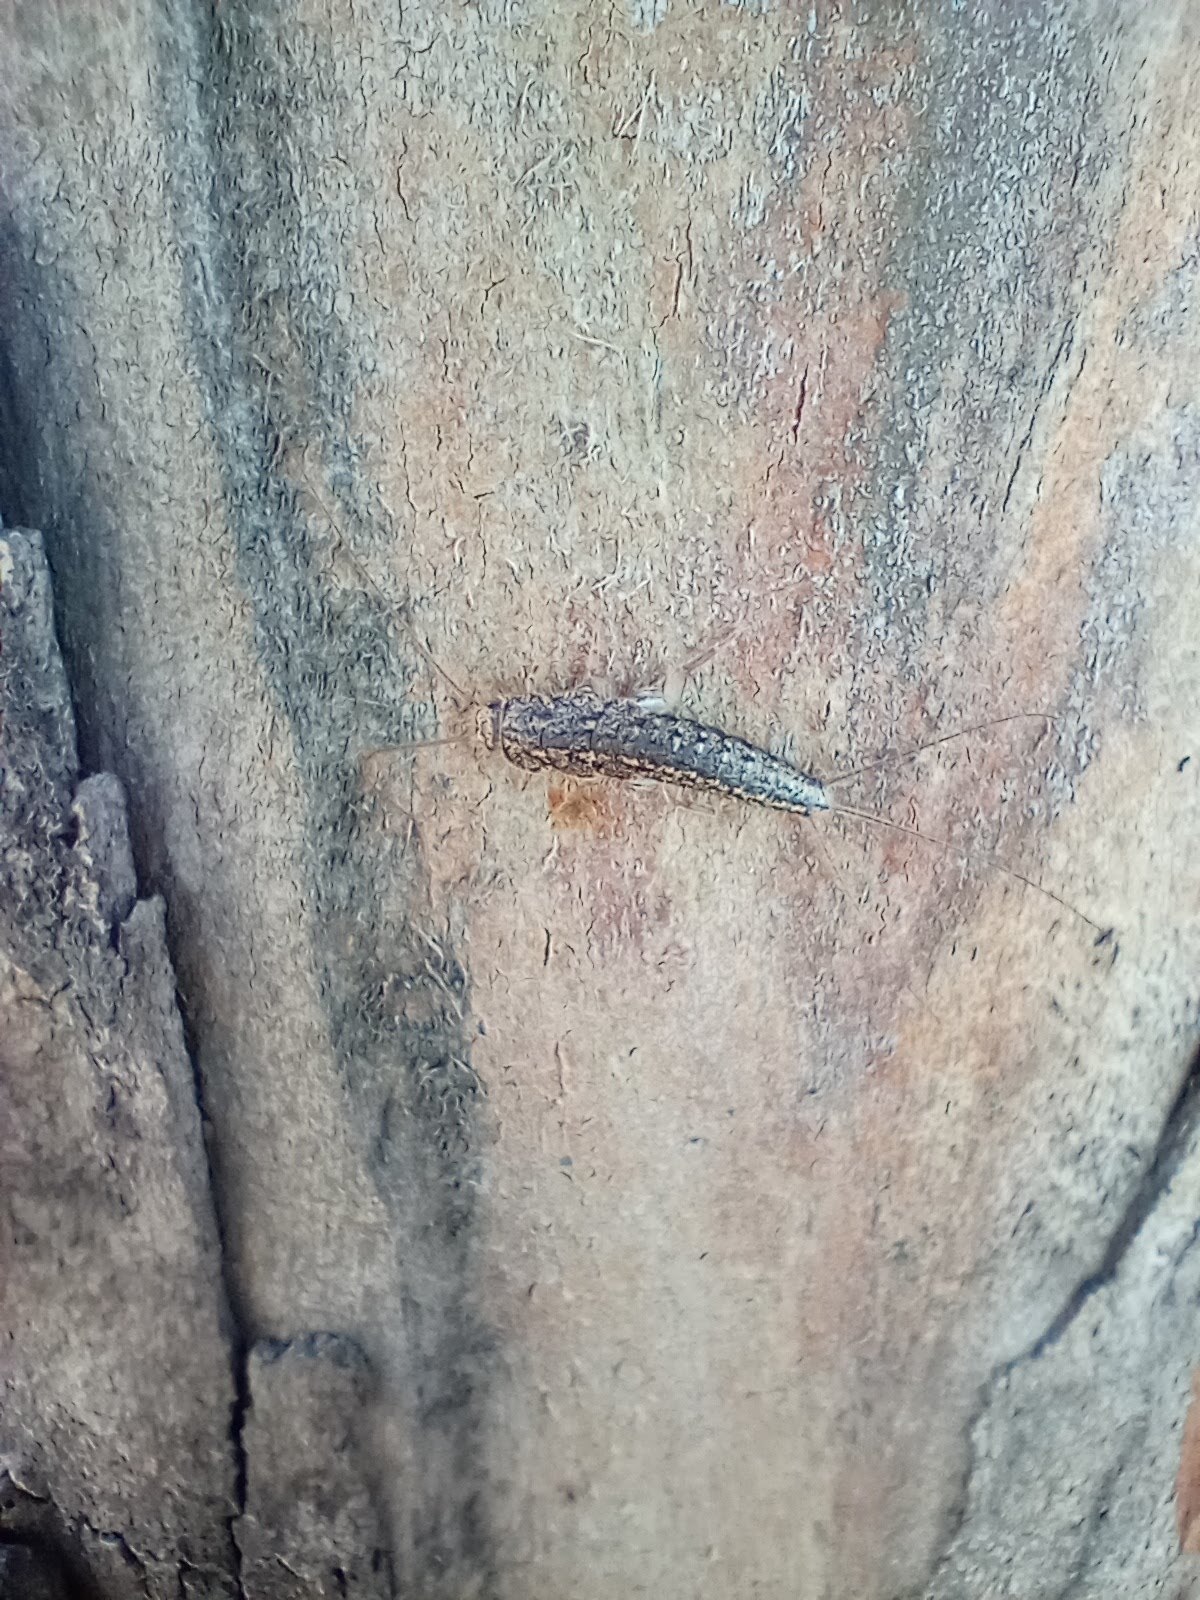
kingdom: Animalia
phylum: Arthropoda
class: Insecta
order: Zygentoma
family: Lepismatidae
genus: Ctenolepisma
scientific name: Ctenolepisma lineata
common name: Four-lined silverfish
